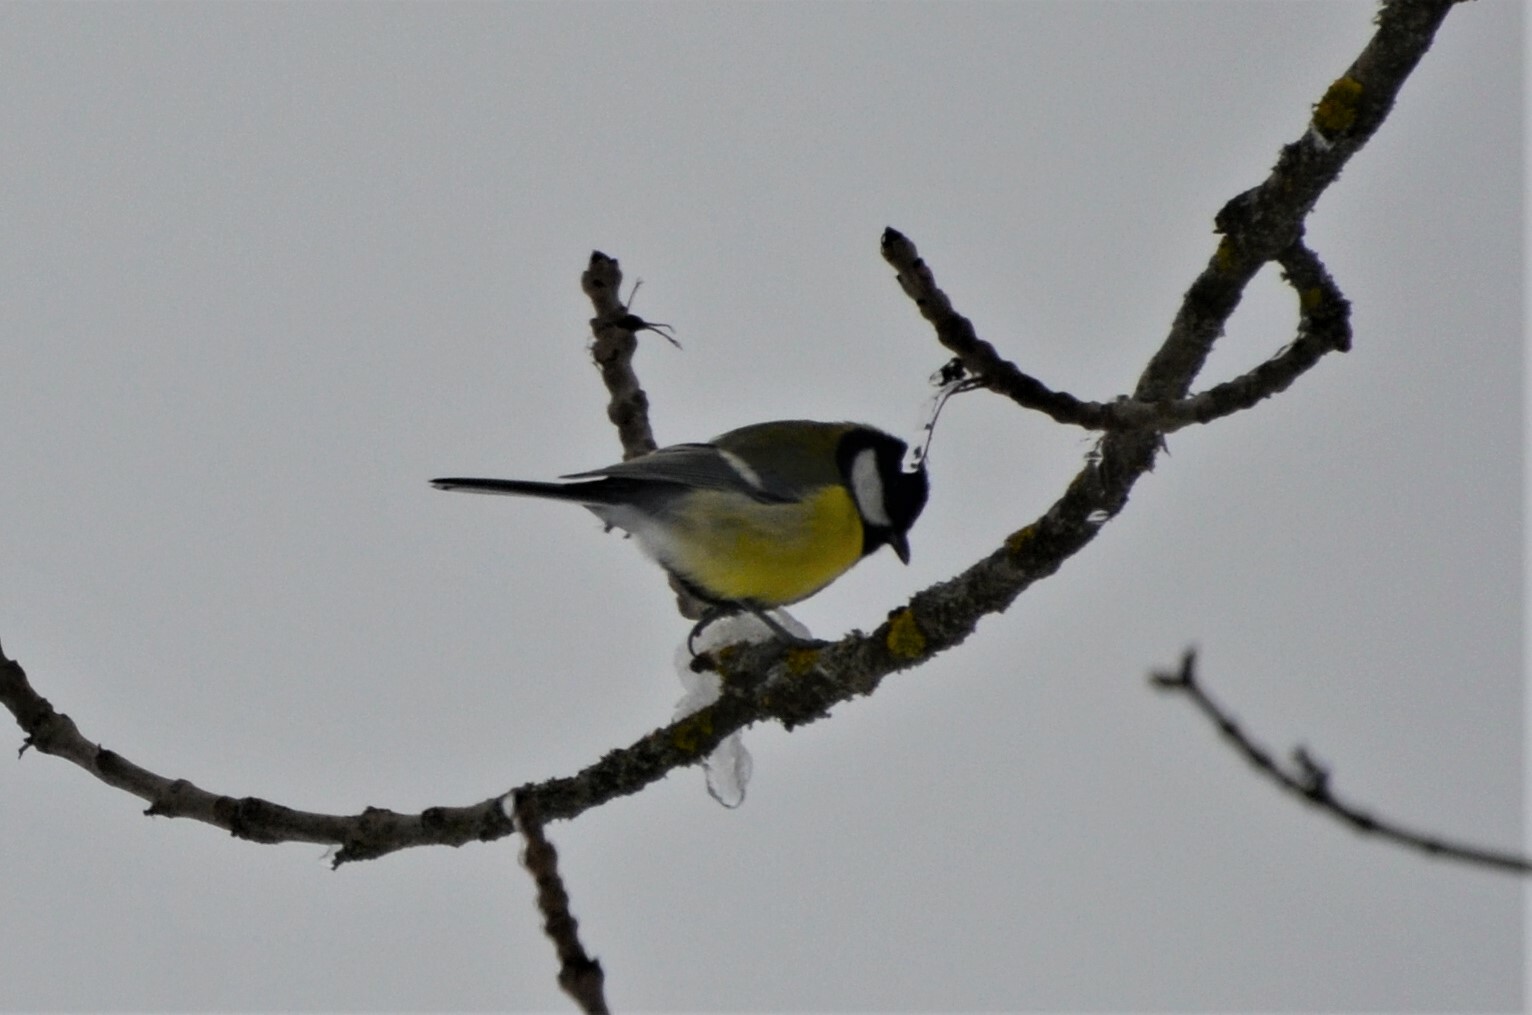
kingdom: Animalia
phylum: Chordata
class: Aves
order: Passeriformes
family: Paridae
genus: Parus
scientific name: Parus major
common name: Great tit
